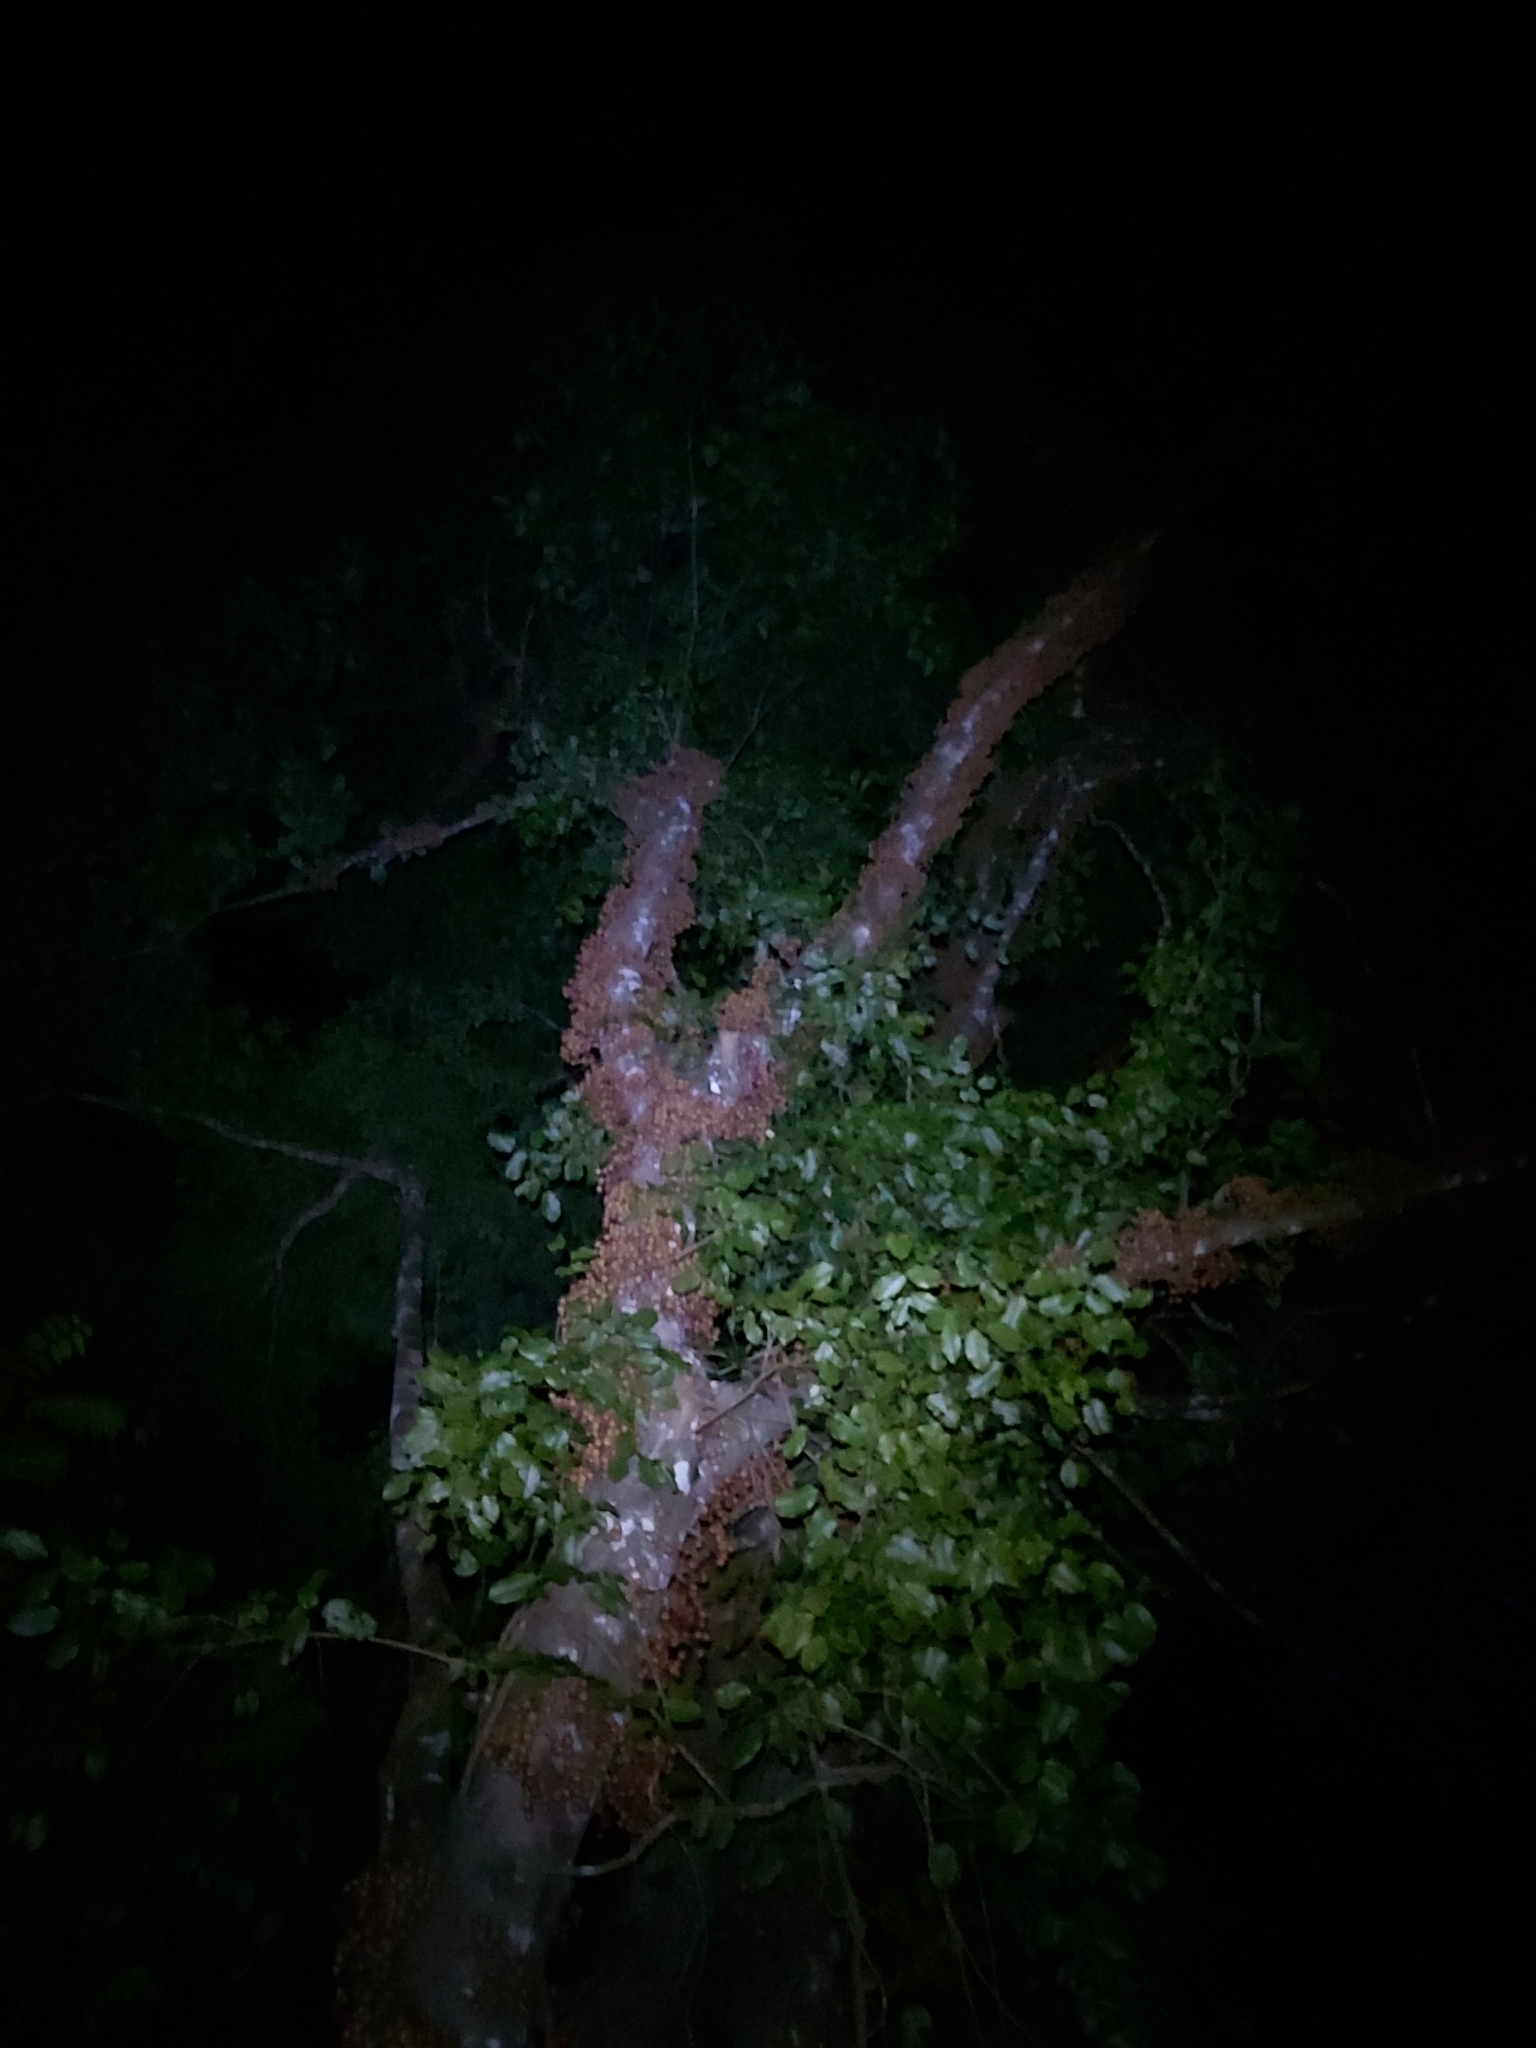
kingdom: Plantae
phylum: Tracheophyta
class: Magnoliopsida
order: Rosales
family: Moraceae
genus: Ficus
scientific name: Ficus variegata
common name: Variegated fig
